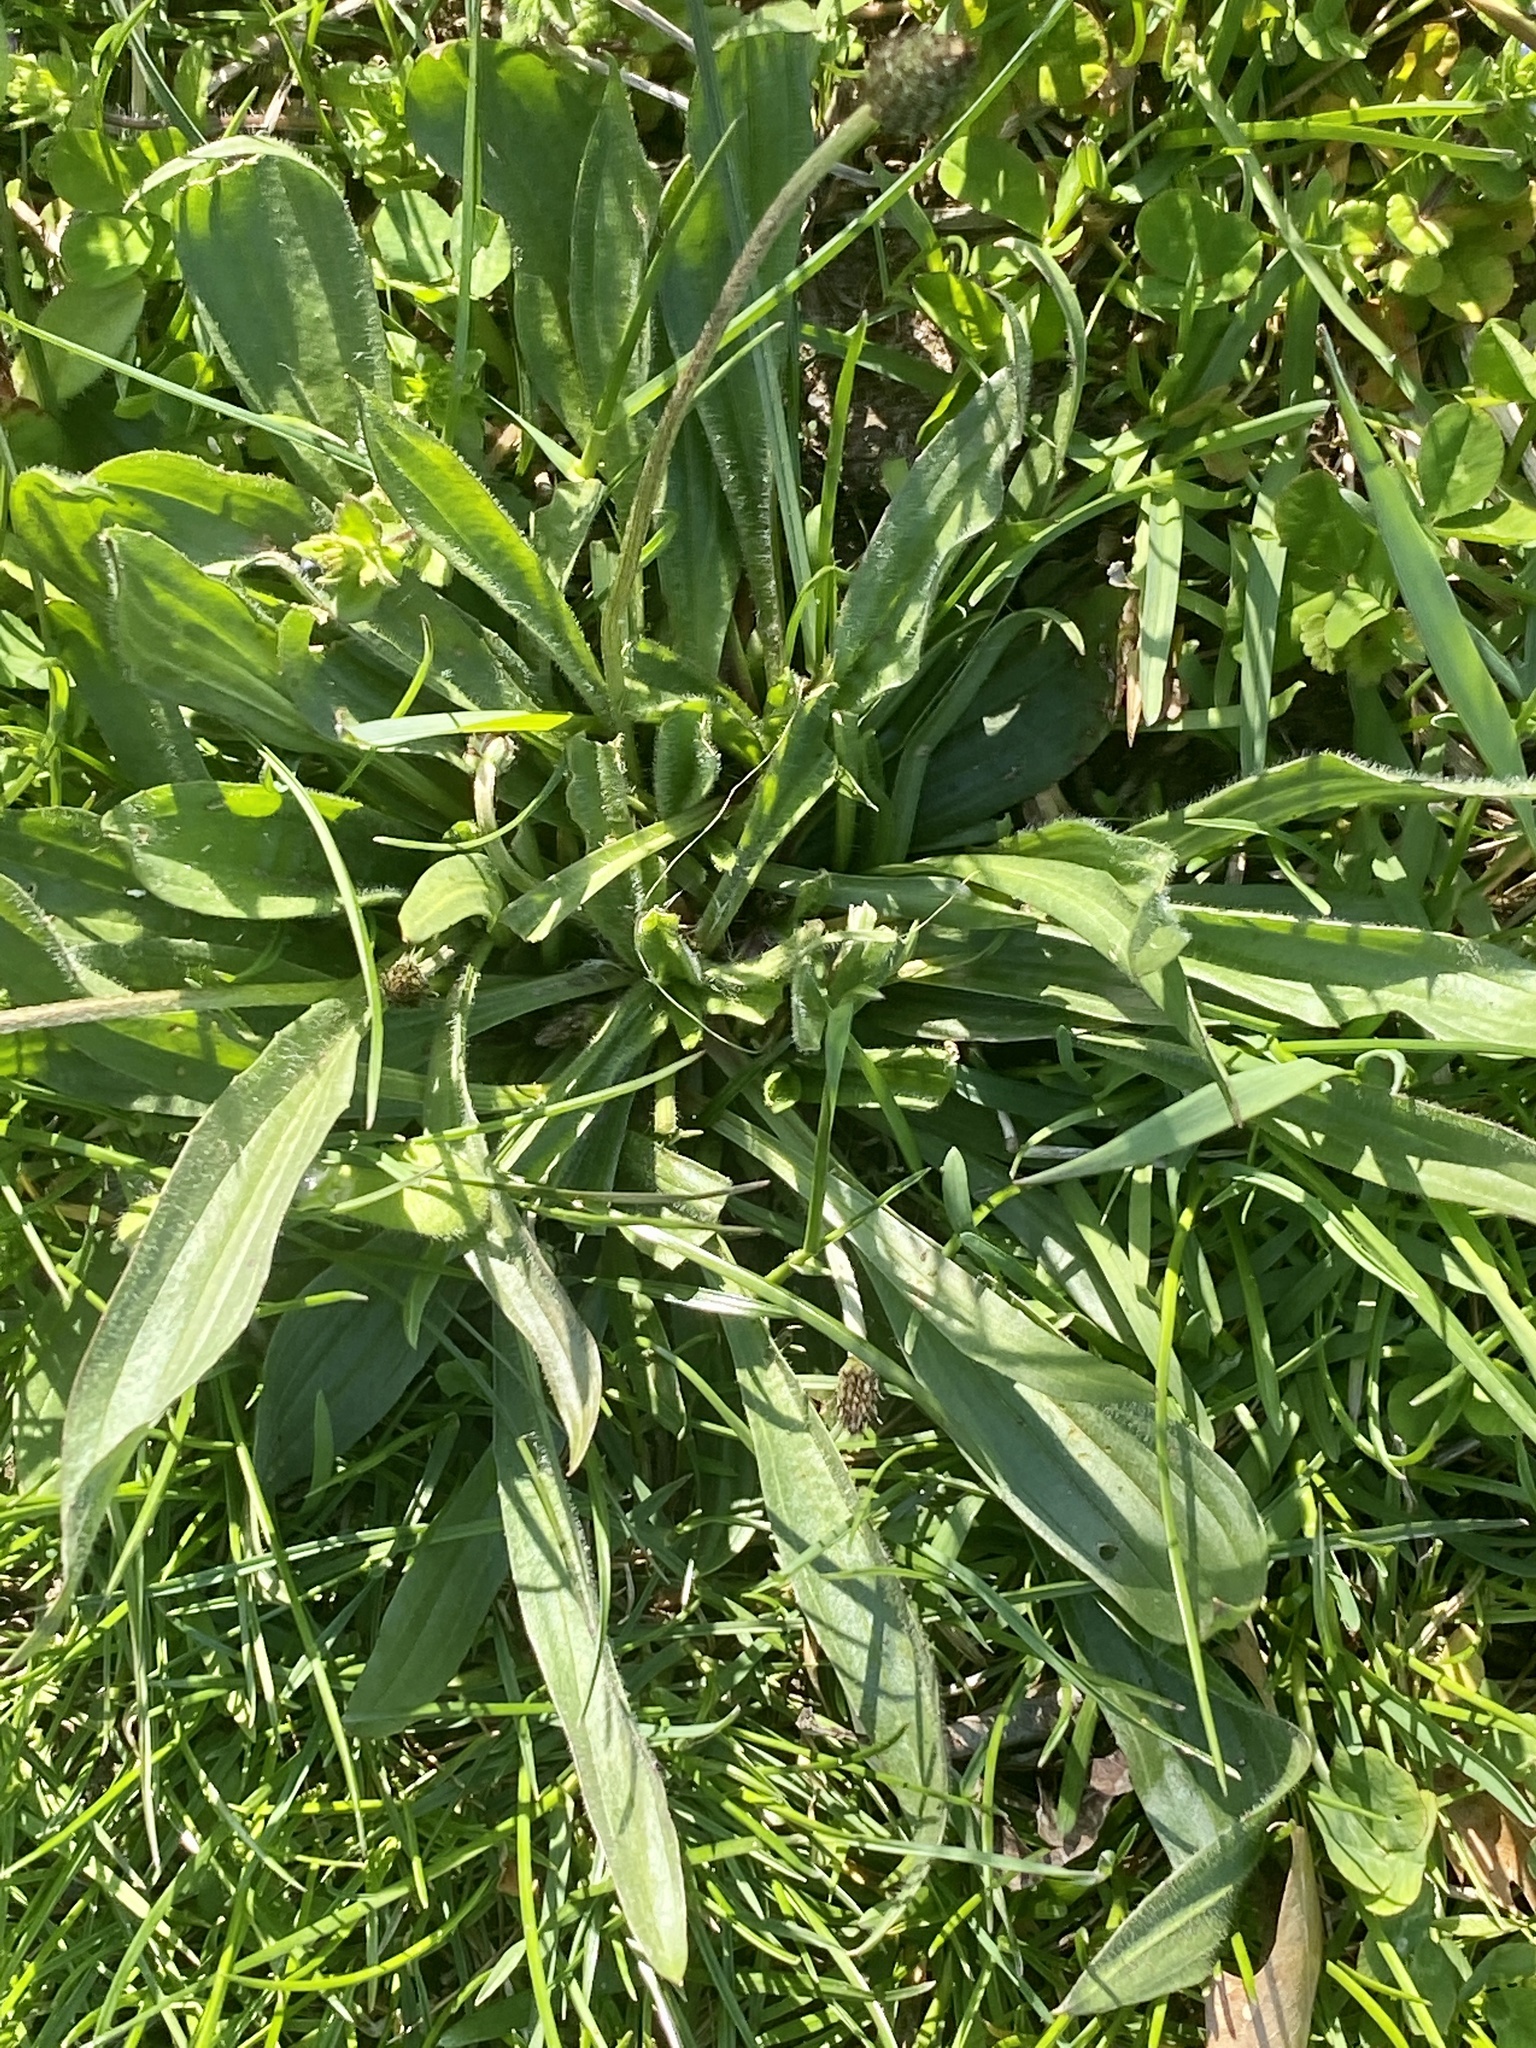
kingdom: Plantae
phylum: Tracheophyta
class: Magnoliopsida
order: Lamiales
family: Plantaginaceae
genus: Plantago
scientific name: Plantago lanceolata
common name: Ribwort plantain
